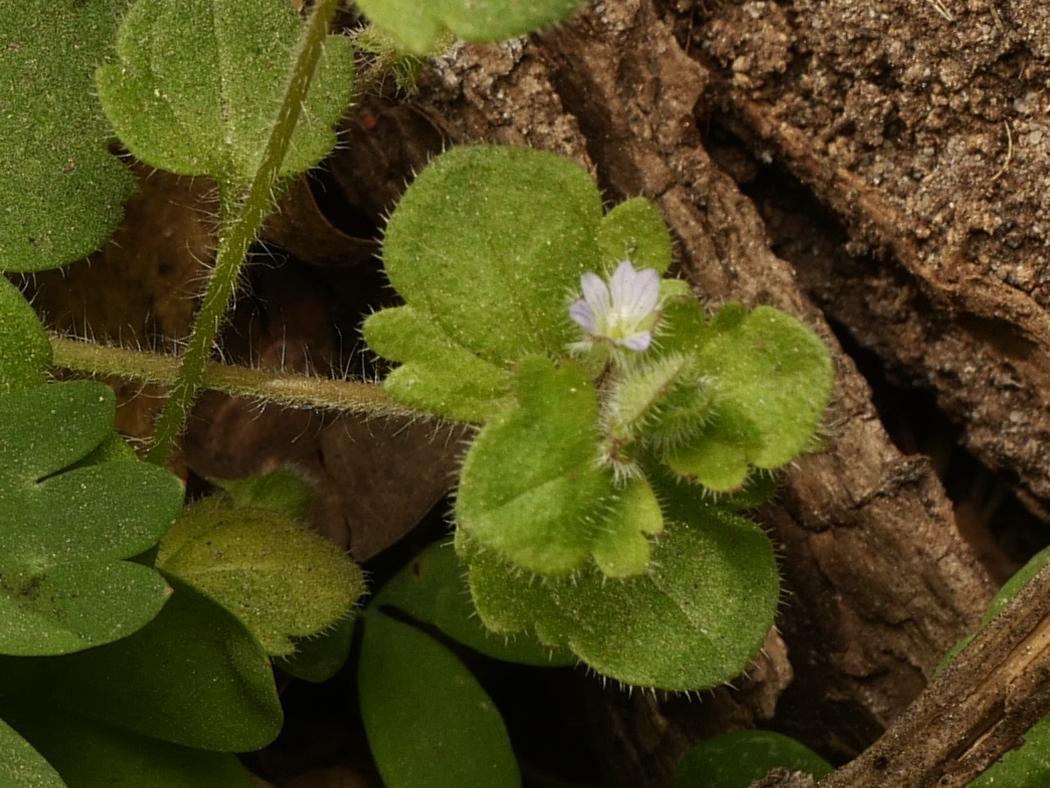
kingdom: Plantae
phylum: Tracheophyta
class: Magnoliopsida
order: Lamiales
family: Plantaginaceae
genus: Veronica
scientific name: Veronica sublobata
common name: False ivy-leaved speedwell
